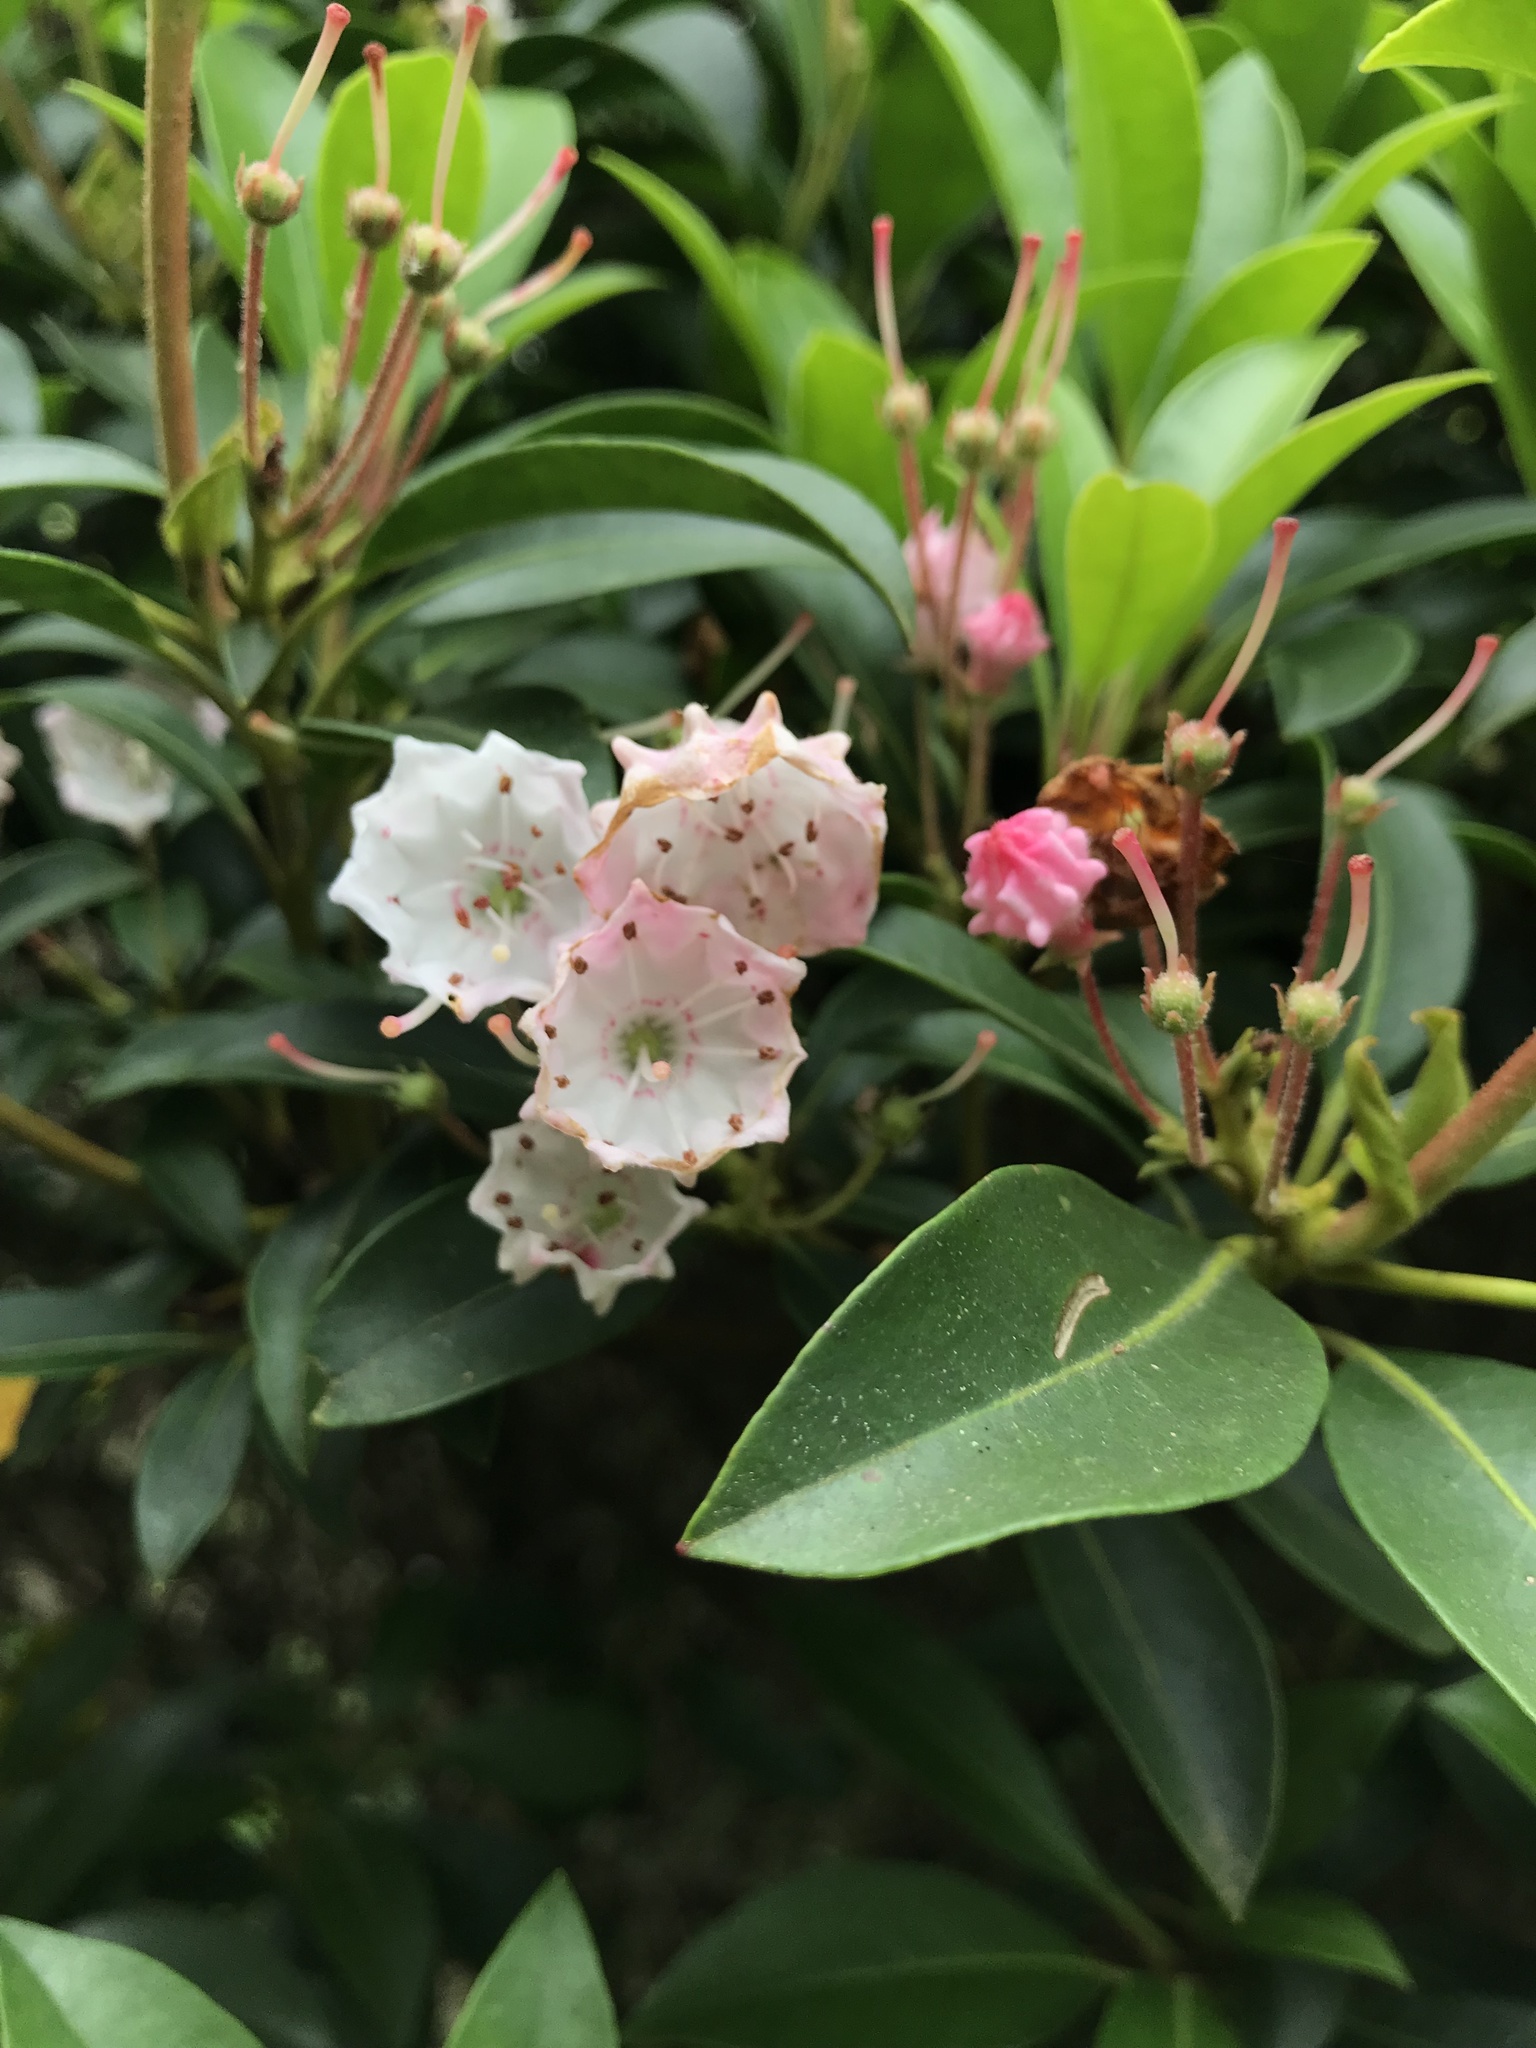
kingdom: Plantae
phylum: Tracheophyta
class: Magnoliopsida
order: Ericales
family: Ericaceae
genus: Kalmia
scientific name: Kalmia latifolia
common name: Mountain-laurel
